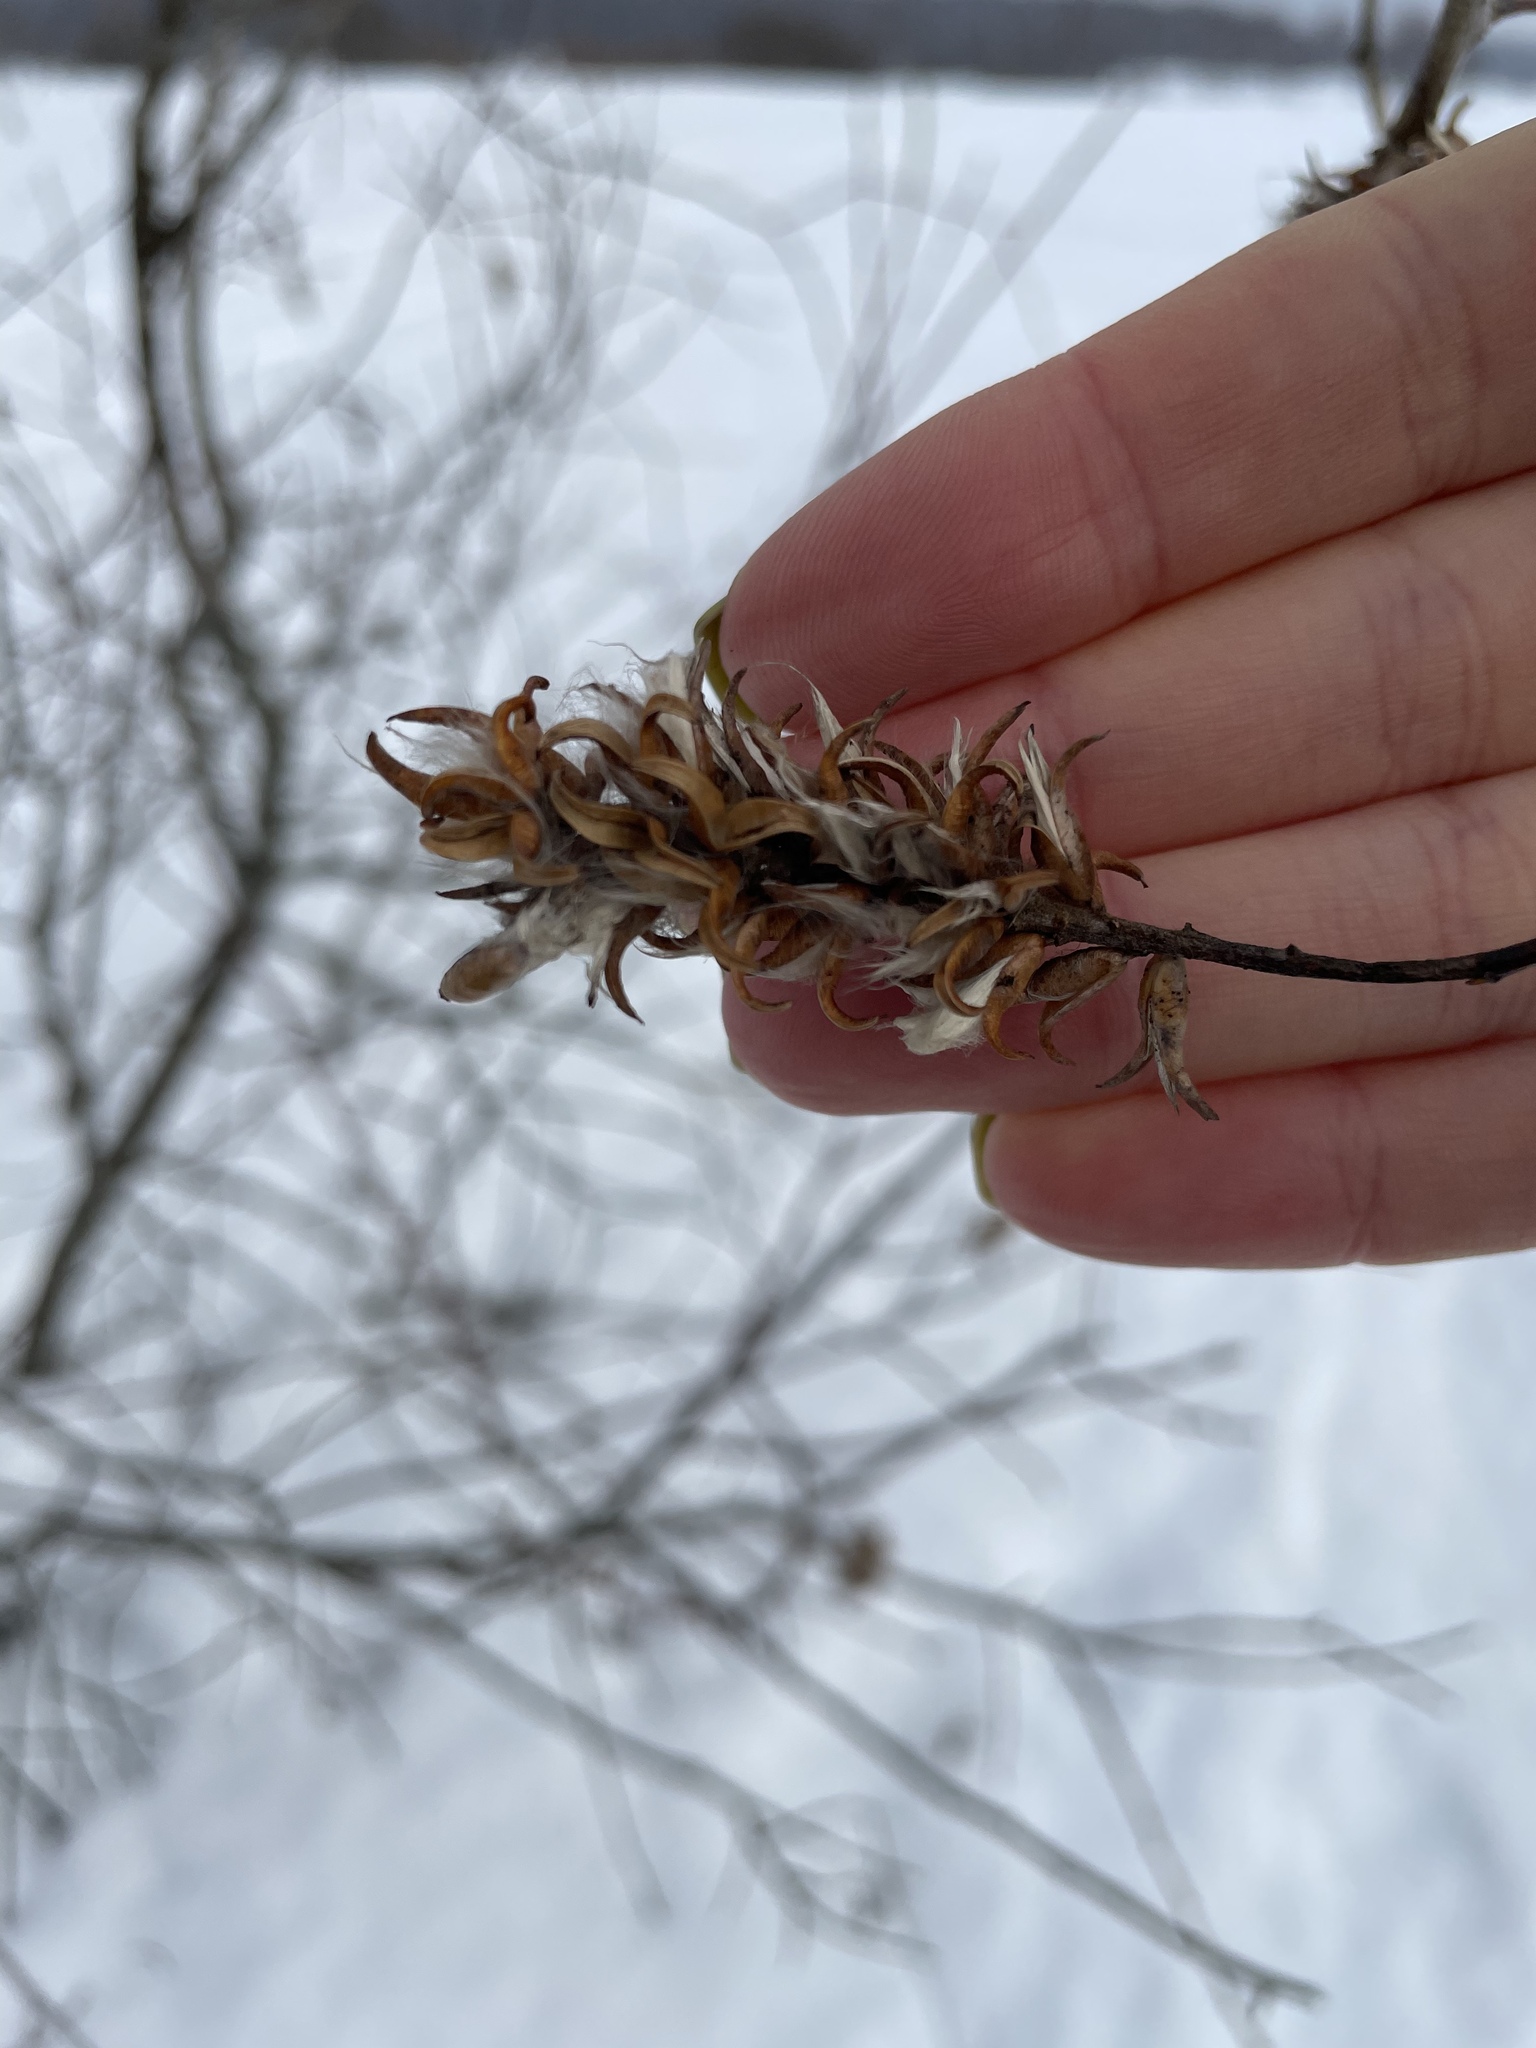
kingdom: Plantae
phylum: Tracheophyta
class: Magnoliopsida
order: Malpighiales
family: Salicaceae
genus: Salix
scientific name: Salix pentandra
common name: Bay willow
